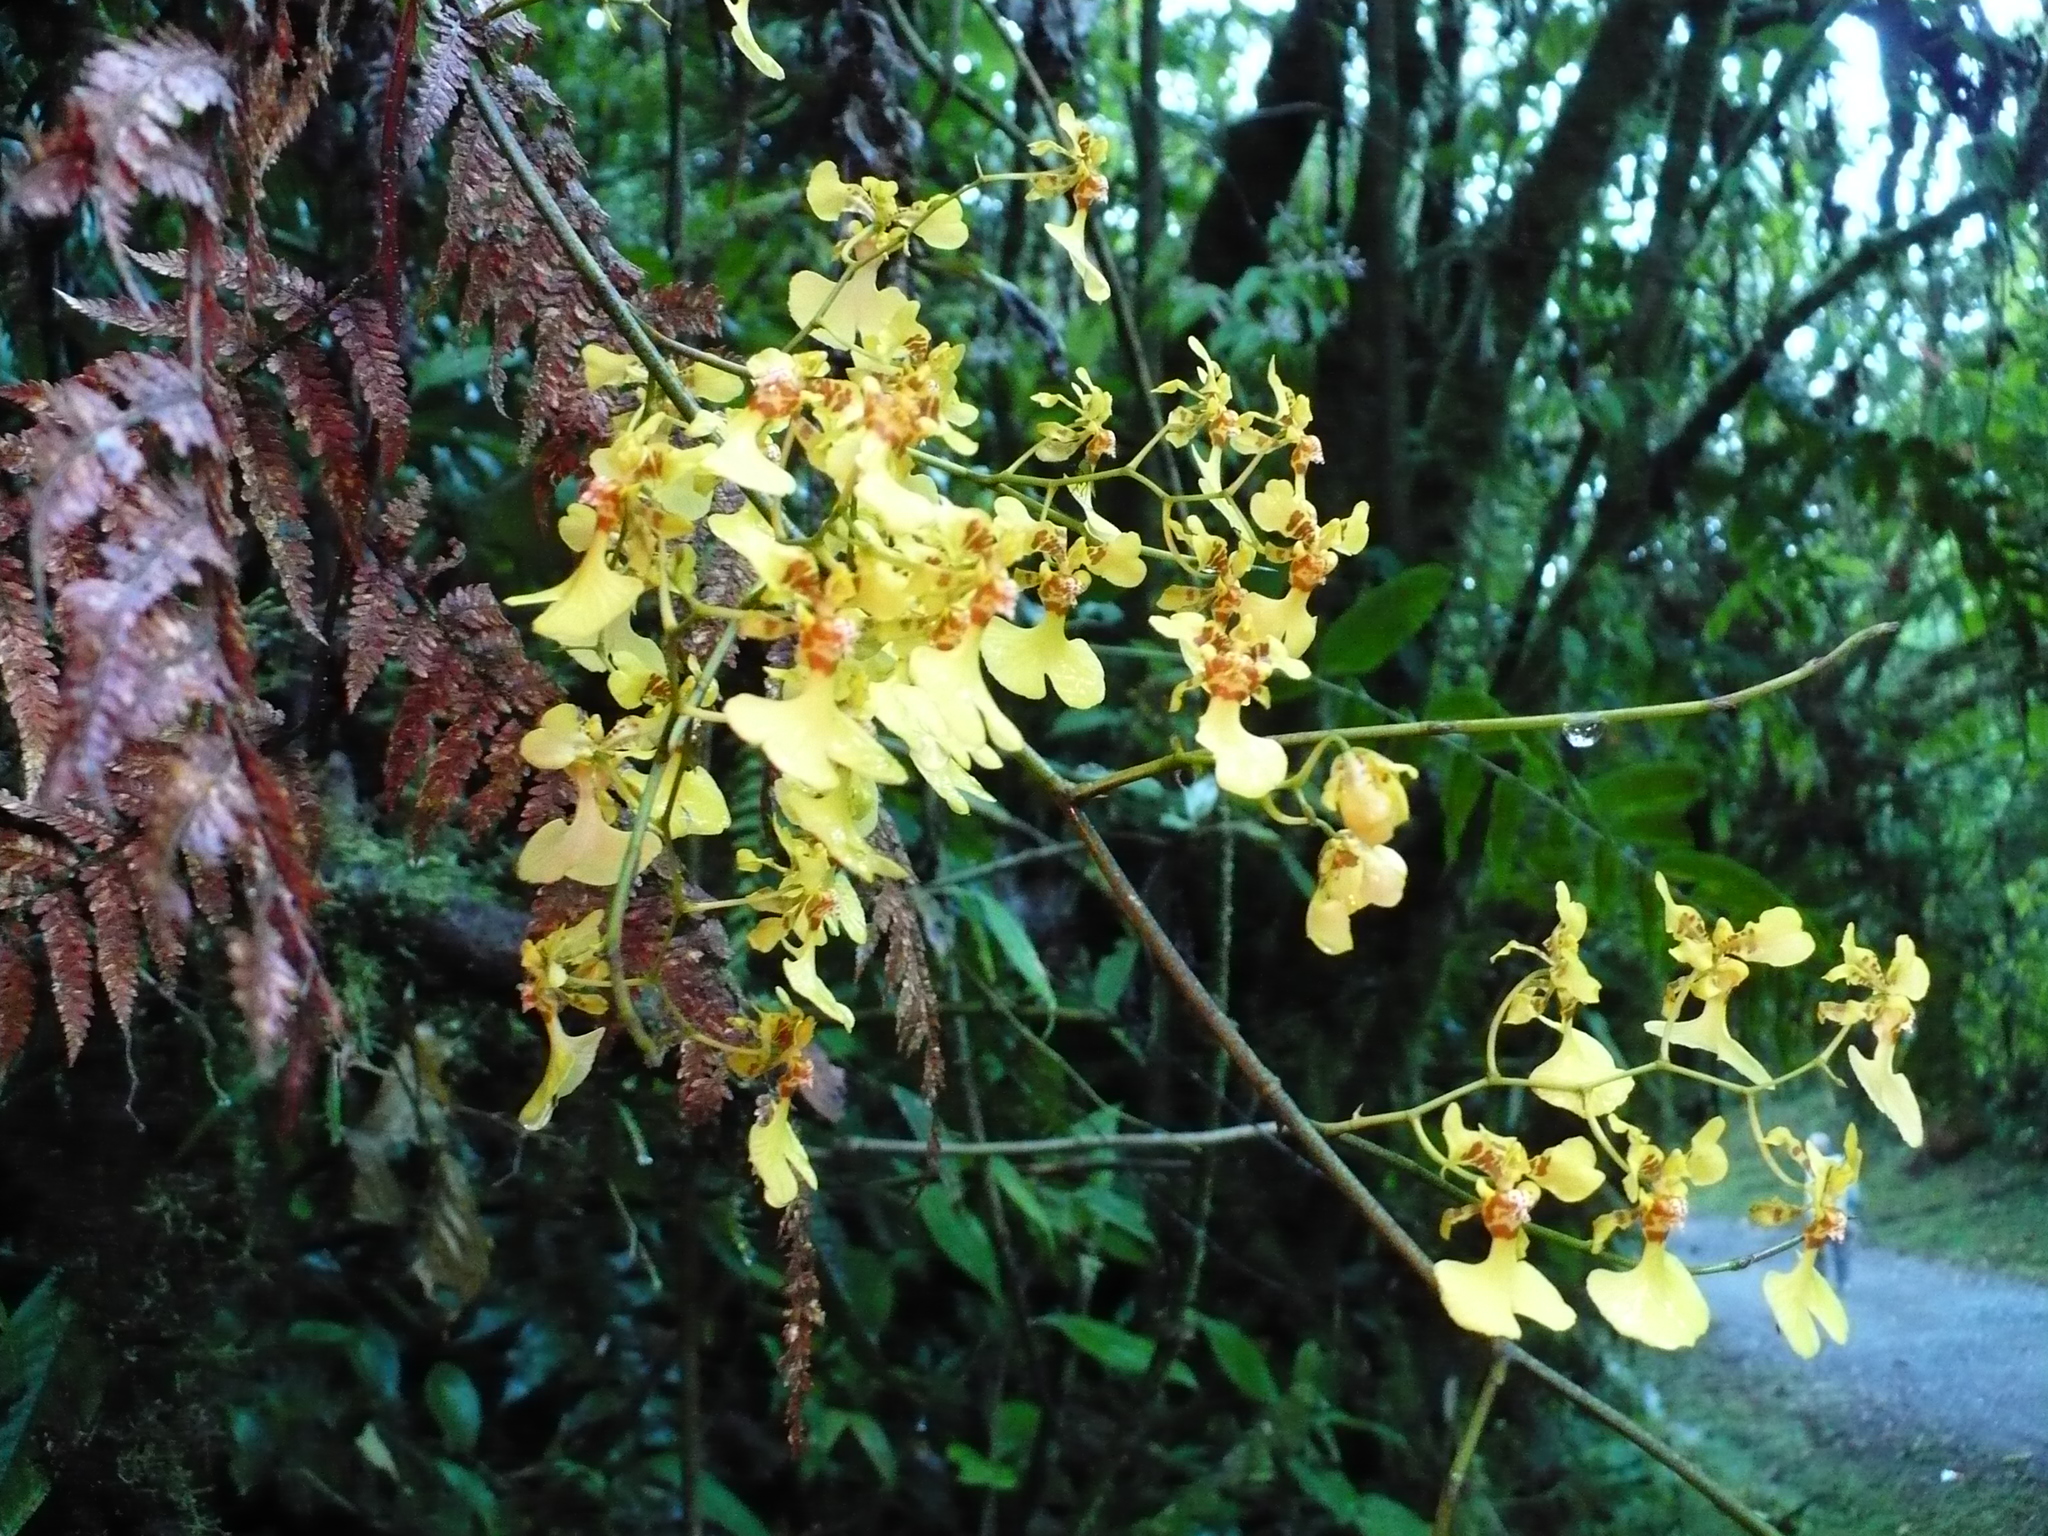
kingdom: Plantae
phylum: Tracheophyta
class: Liliopsida
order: Asparagales
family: Orchidaceae
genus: Oncidium
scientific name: Oncidium nebulosum
